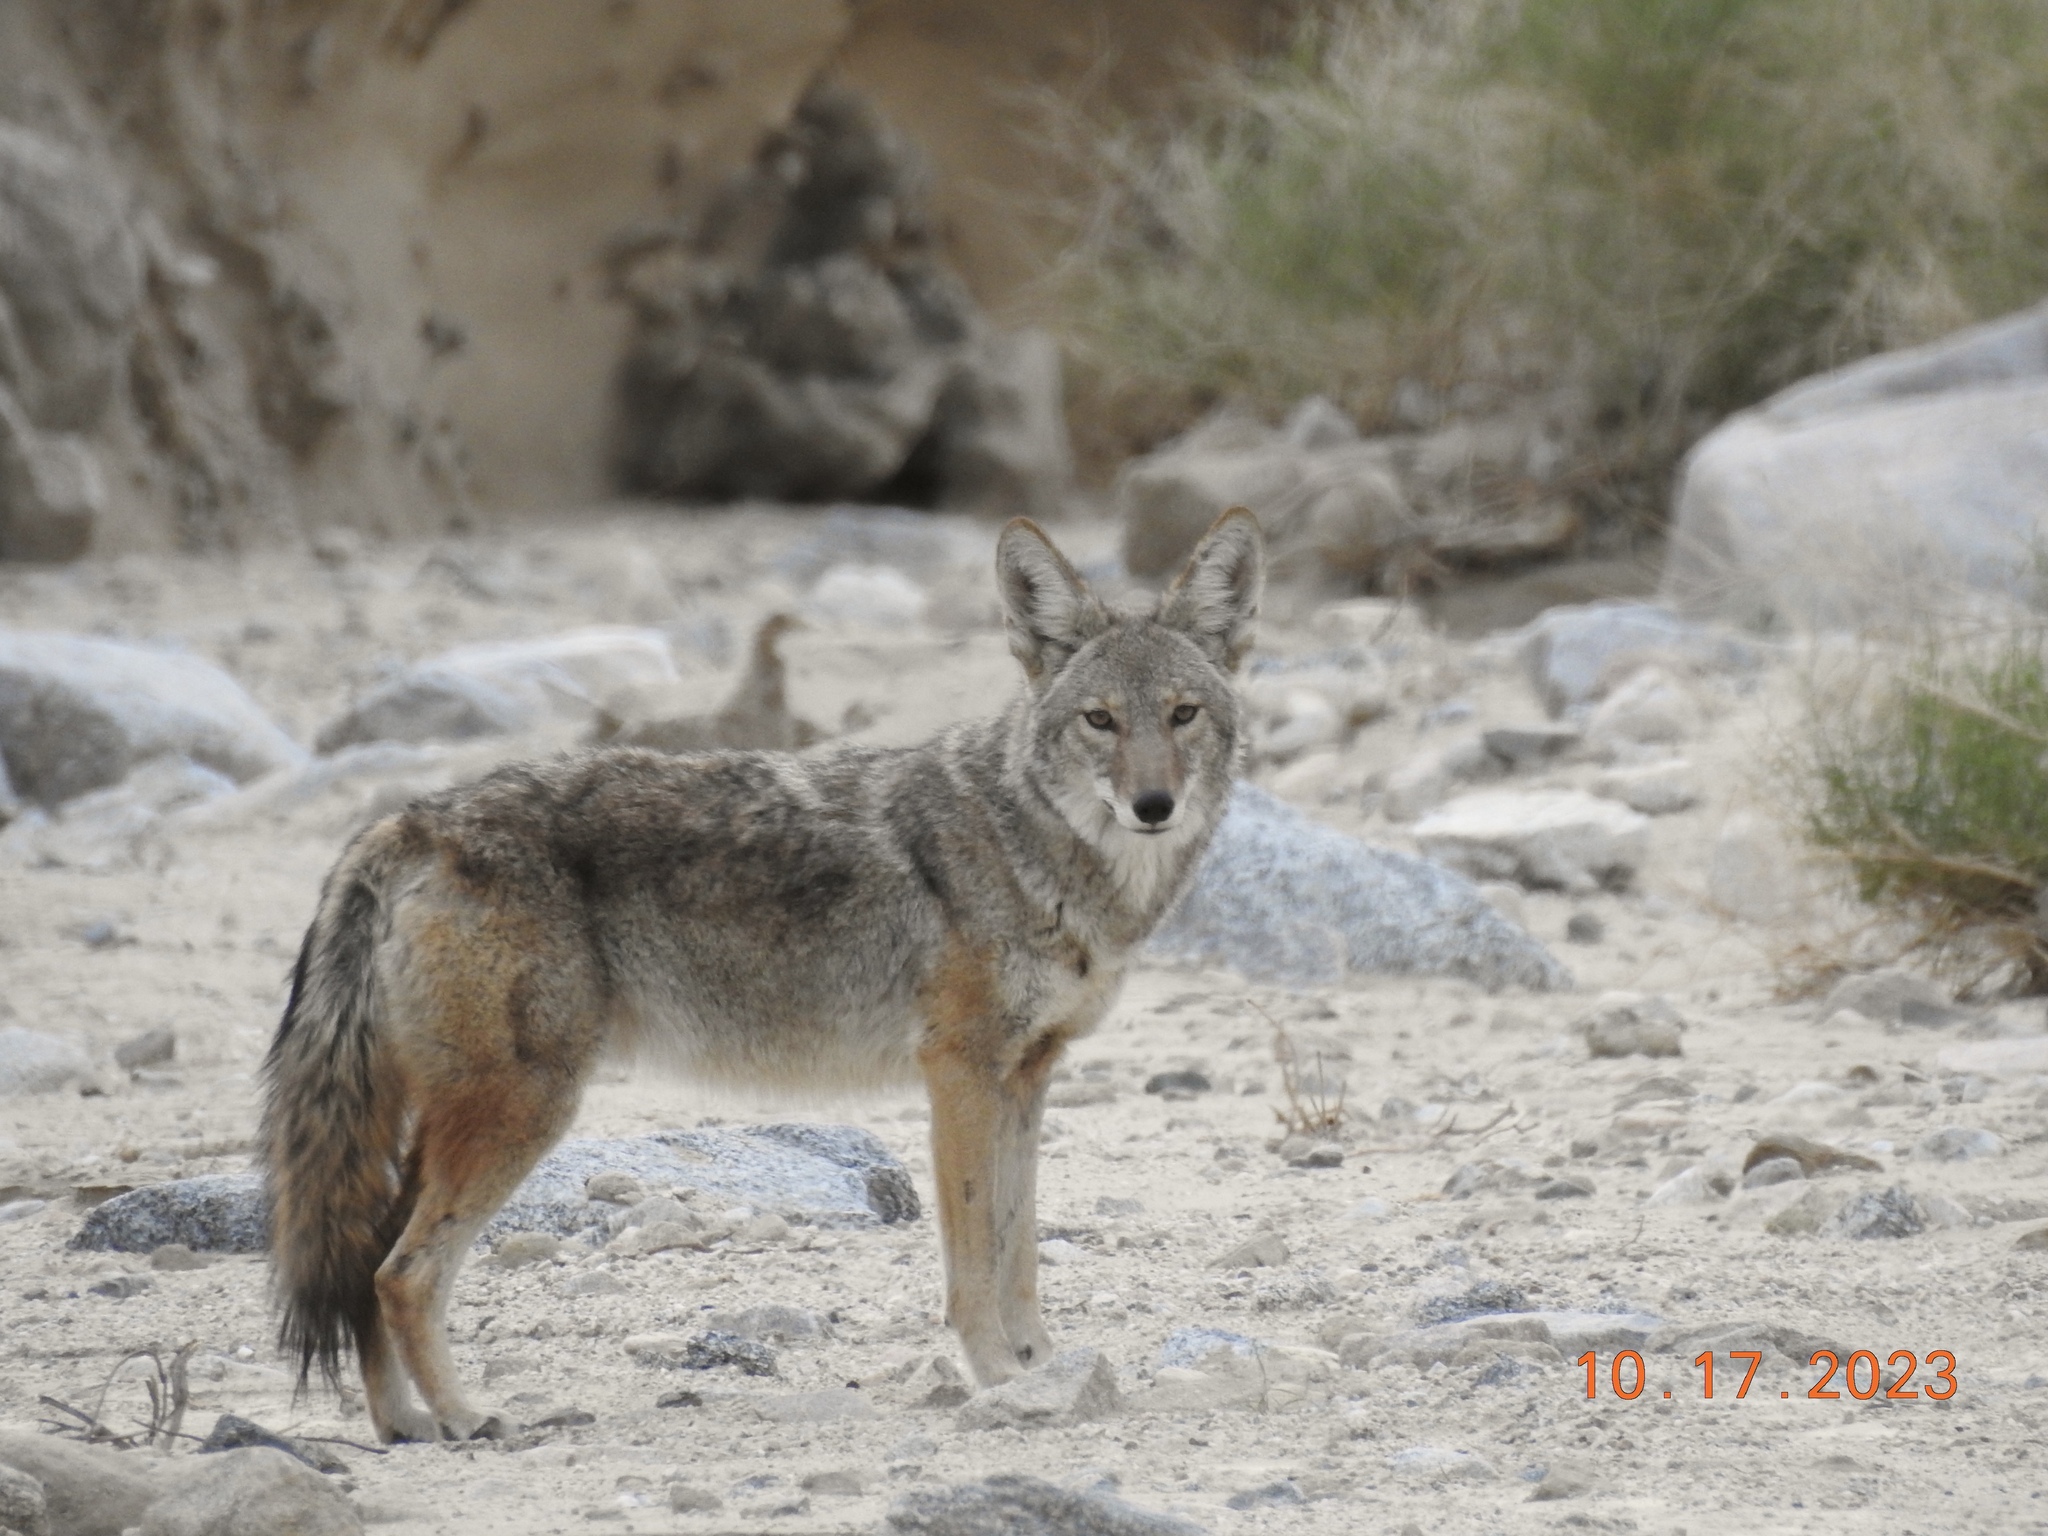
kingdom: Animalia
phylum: Chordata
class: Mammalia
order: Carnivora
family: Canidae
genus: Canis
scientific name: Canis latrans
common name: Coyote
